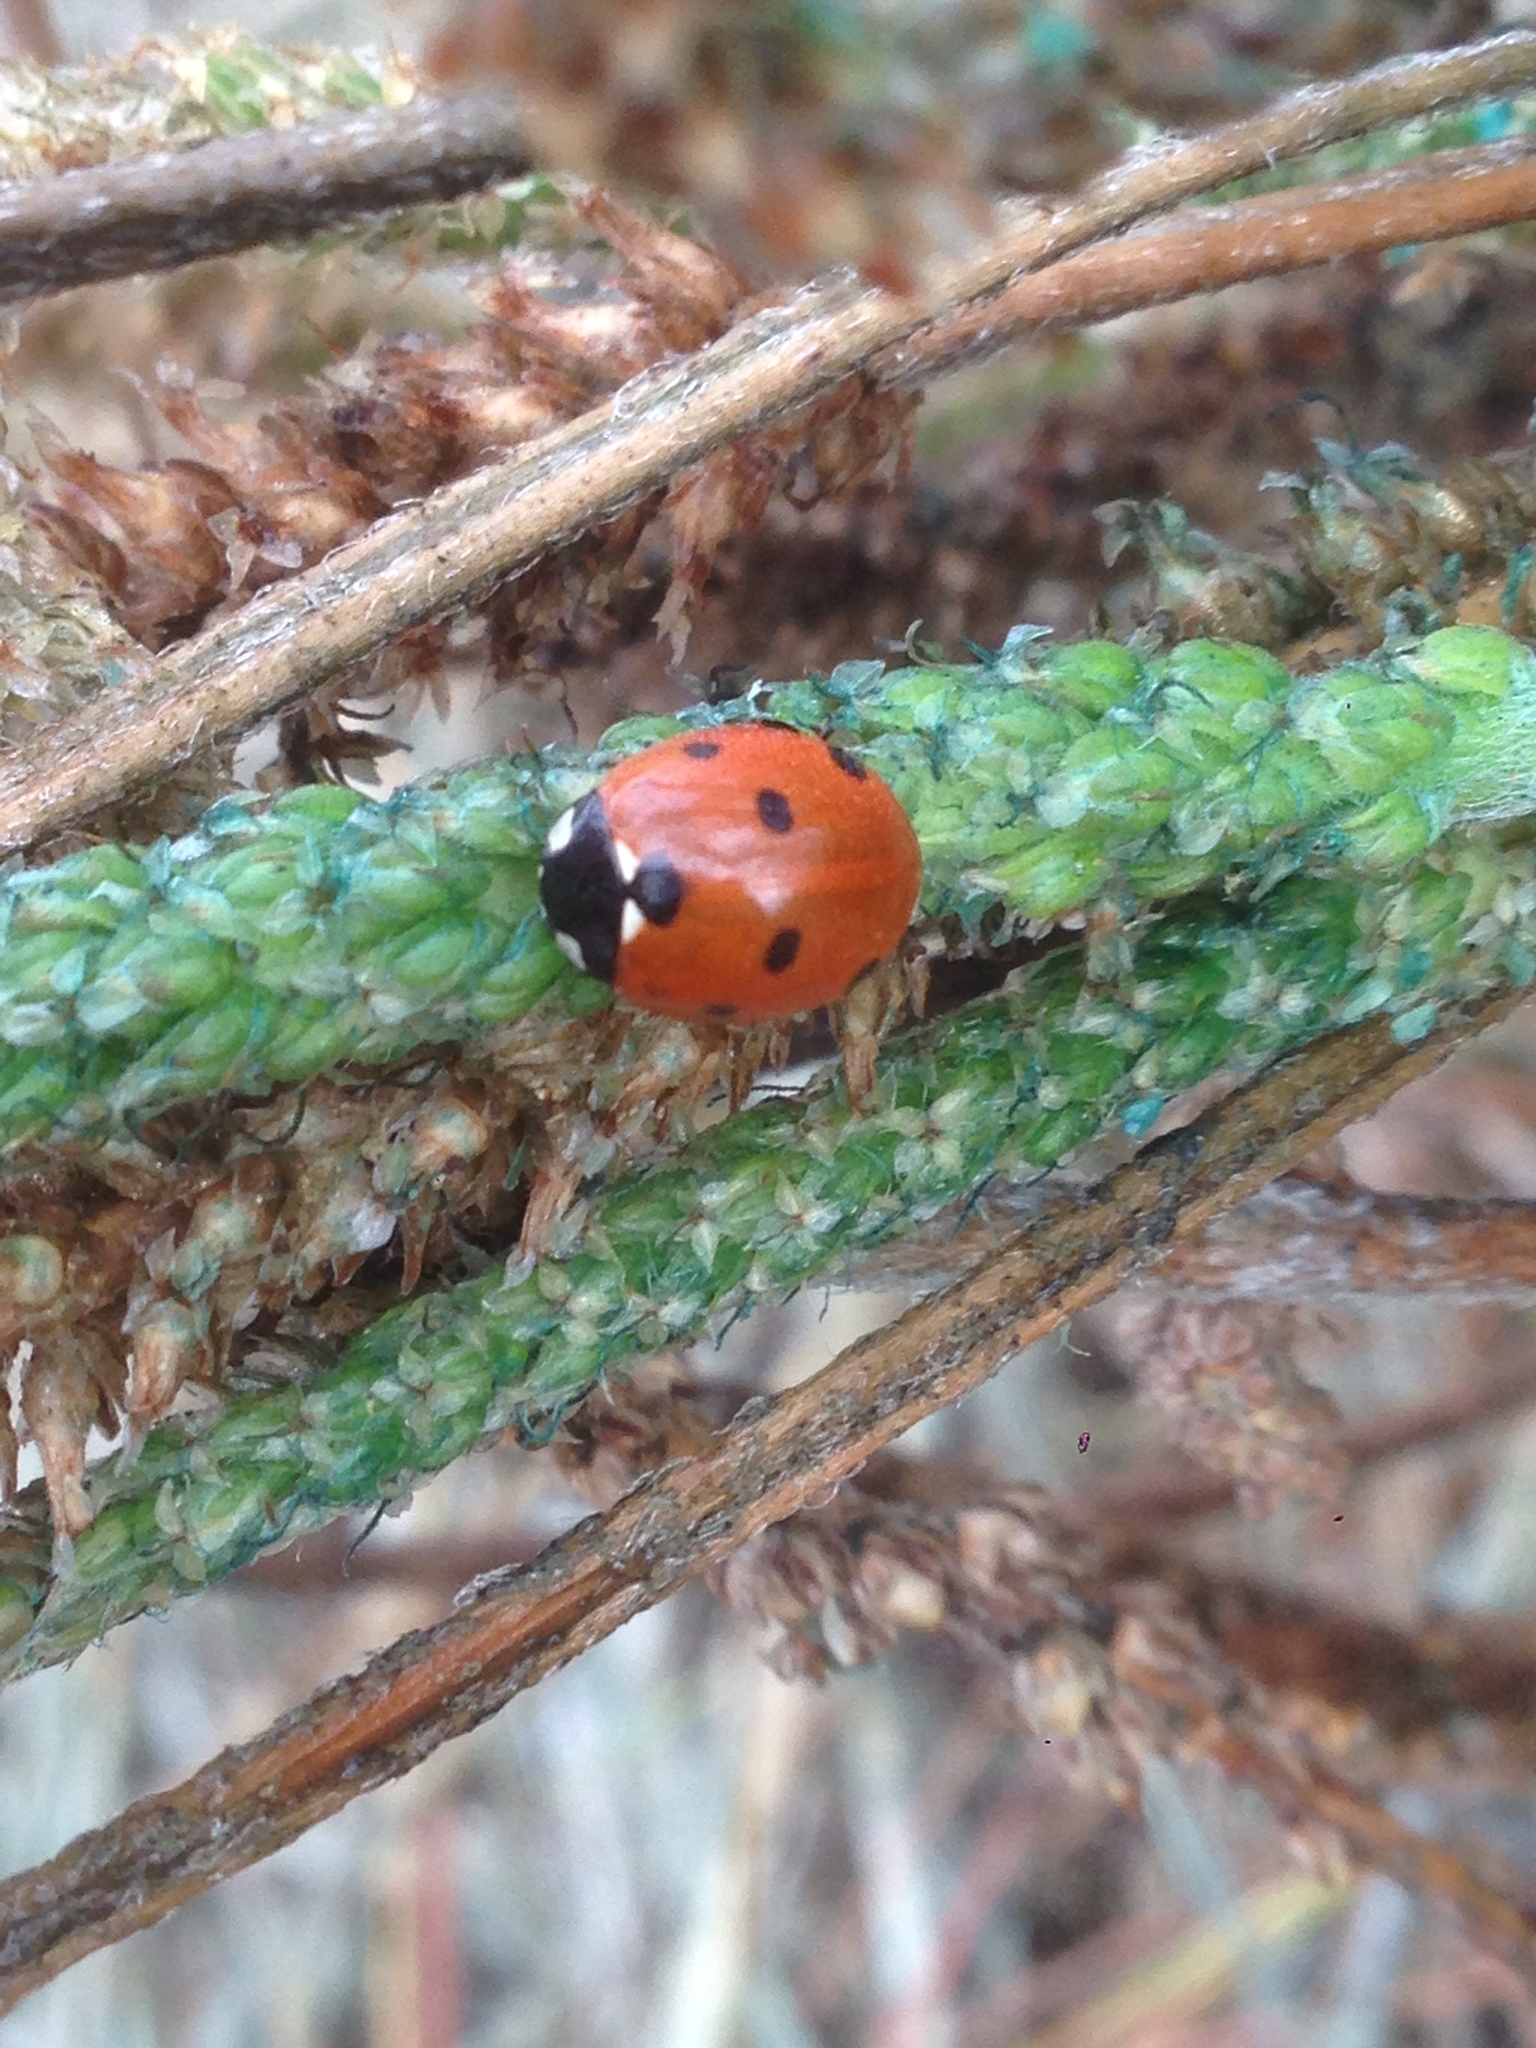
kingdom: Animalia
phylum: Arthropoda
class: Insecta
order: Coleoptera
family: Coccinellidae
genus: Coccinella
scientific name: Coccinella septempunctata
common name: Sevenspotted lady beetle
